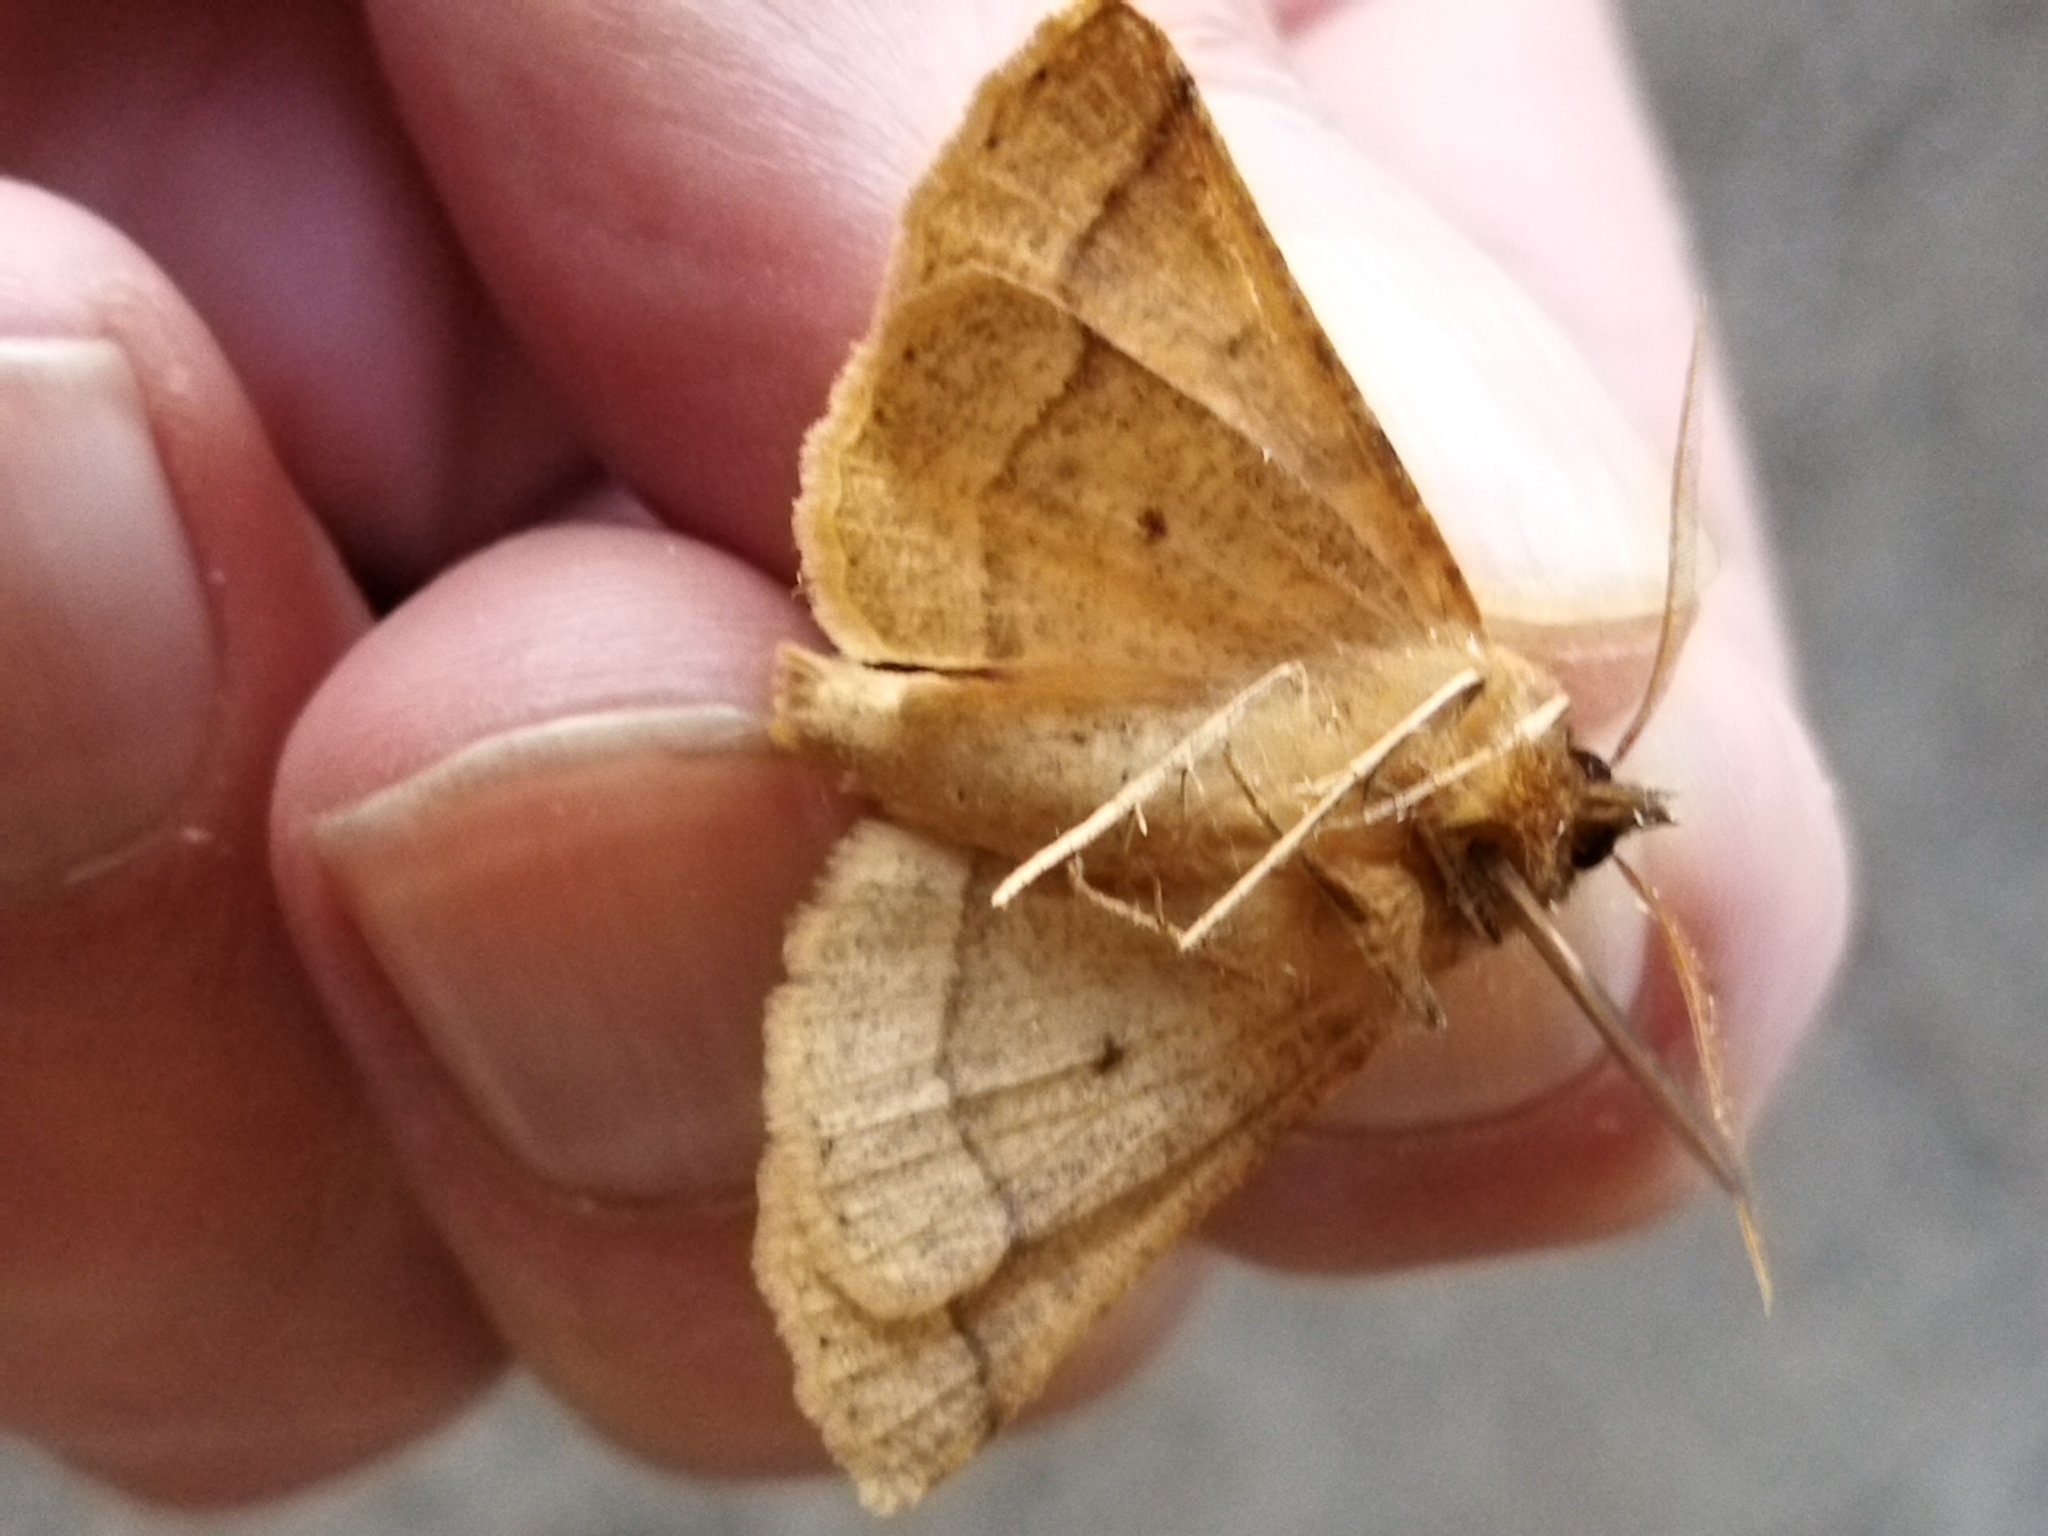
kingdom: Animalia
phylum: Arthropoda
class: Insecta
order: Lepidoptera
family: Geometridae
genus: Crocallis
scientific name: Crocallis tusciaria
